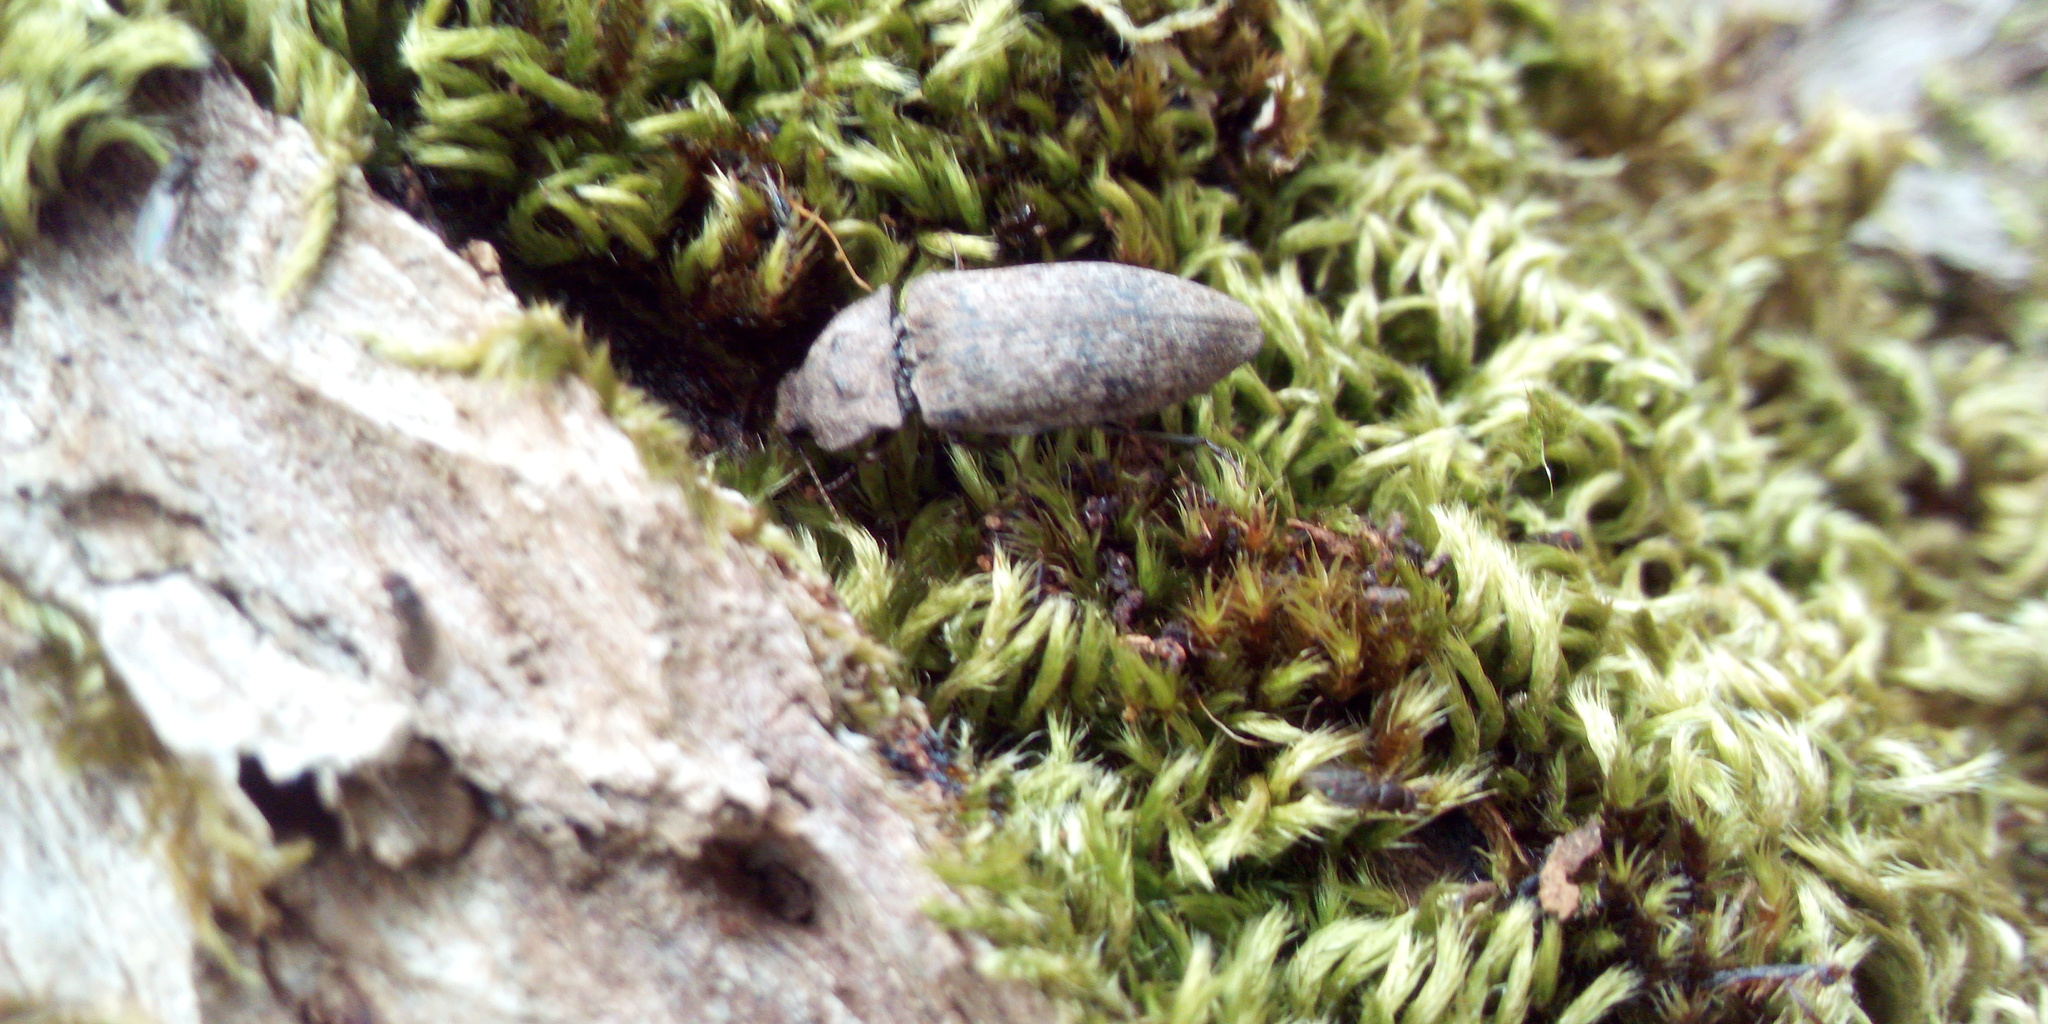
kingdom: Animalia
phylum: Arthropoda
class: Insecta
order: Coleoptera
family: Elateridae
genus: Agrypnus
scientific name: Agrypnus murinus
